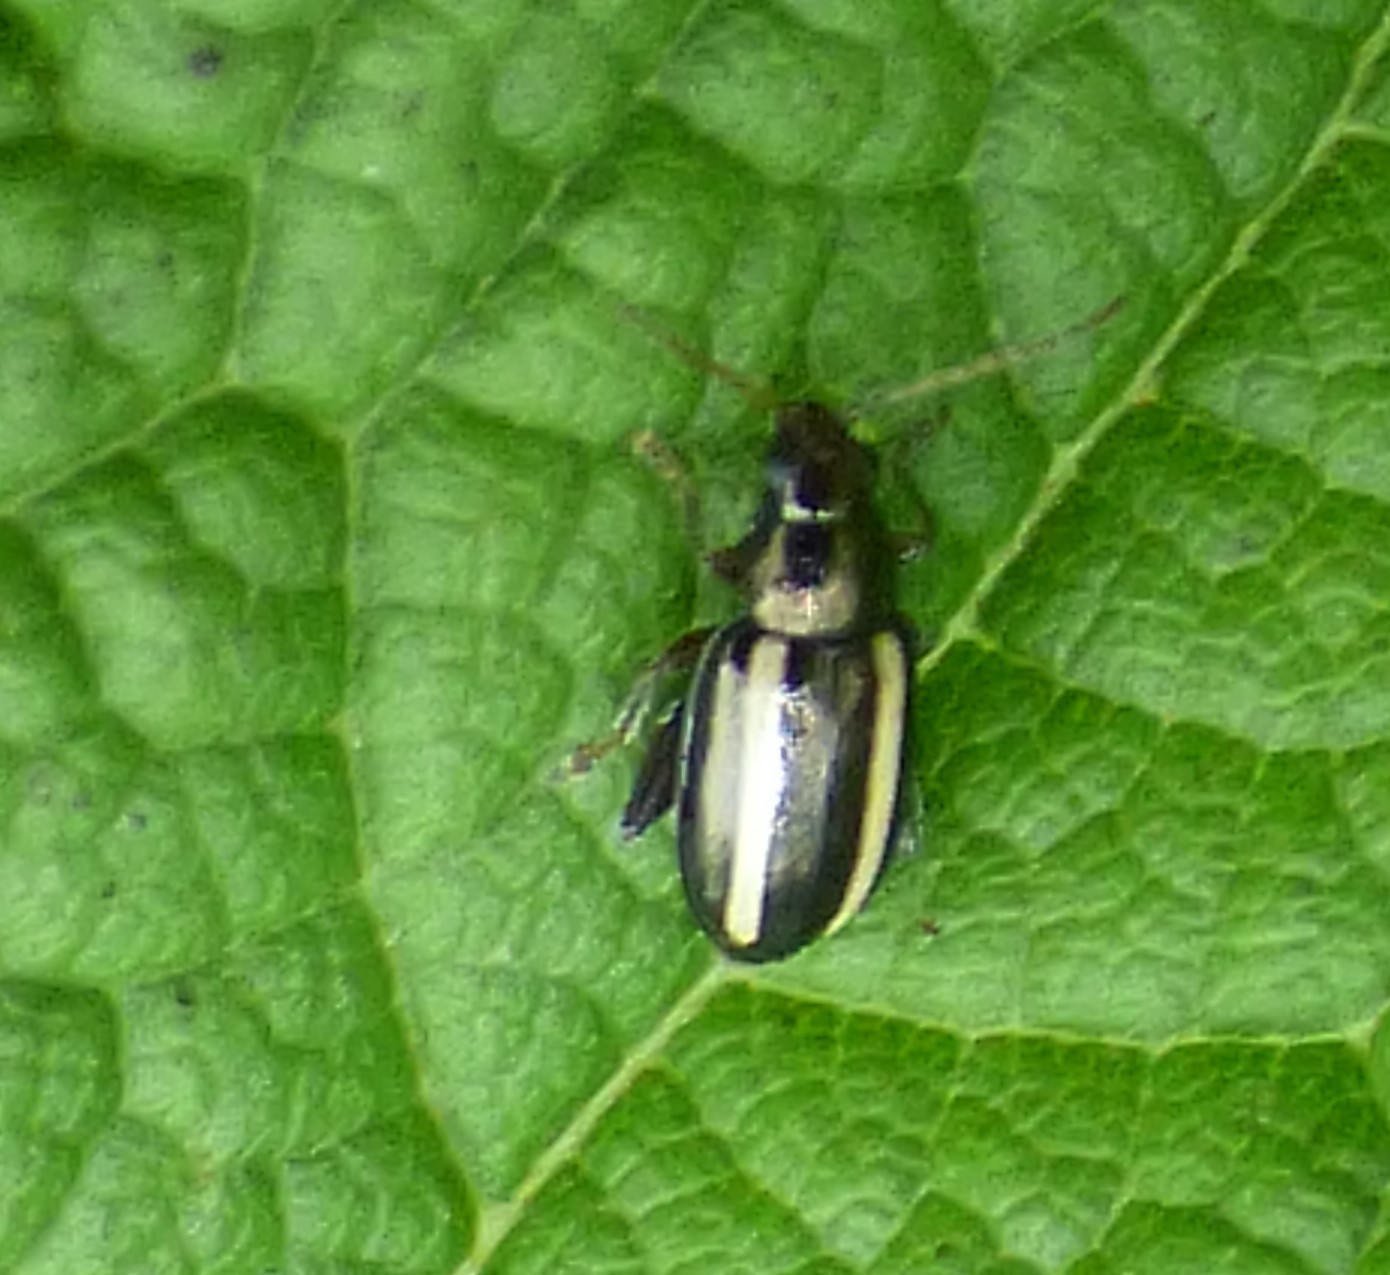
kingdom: Animalia
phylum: Arthropoda
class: Insecta
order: Coleoptera
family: Chrysomelidae
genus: Systena
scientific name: Systena elongata
